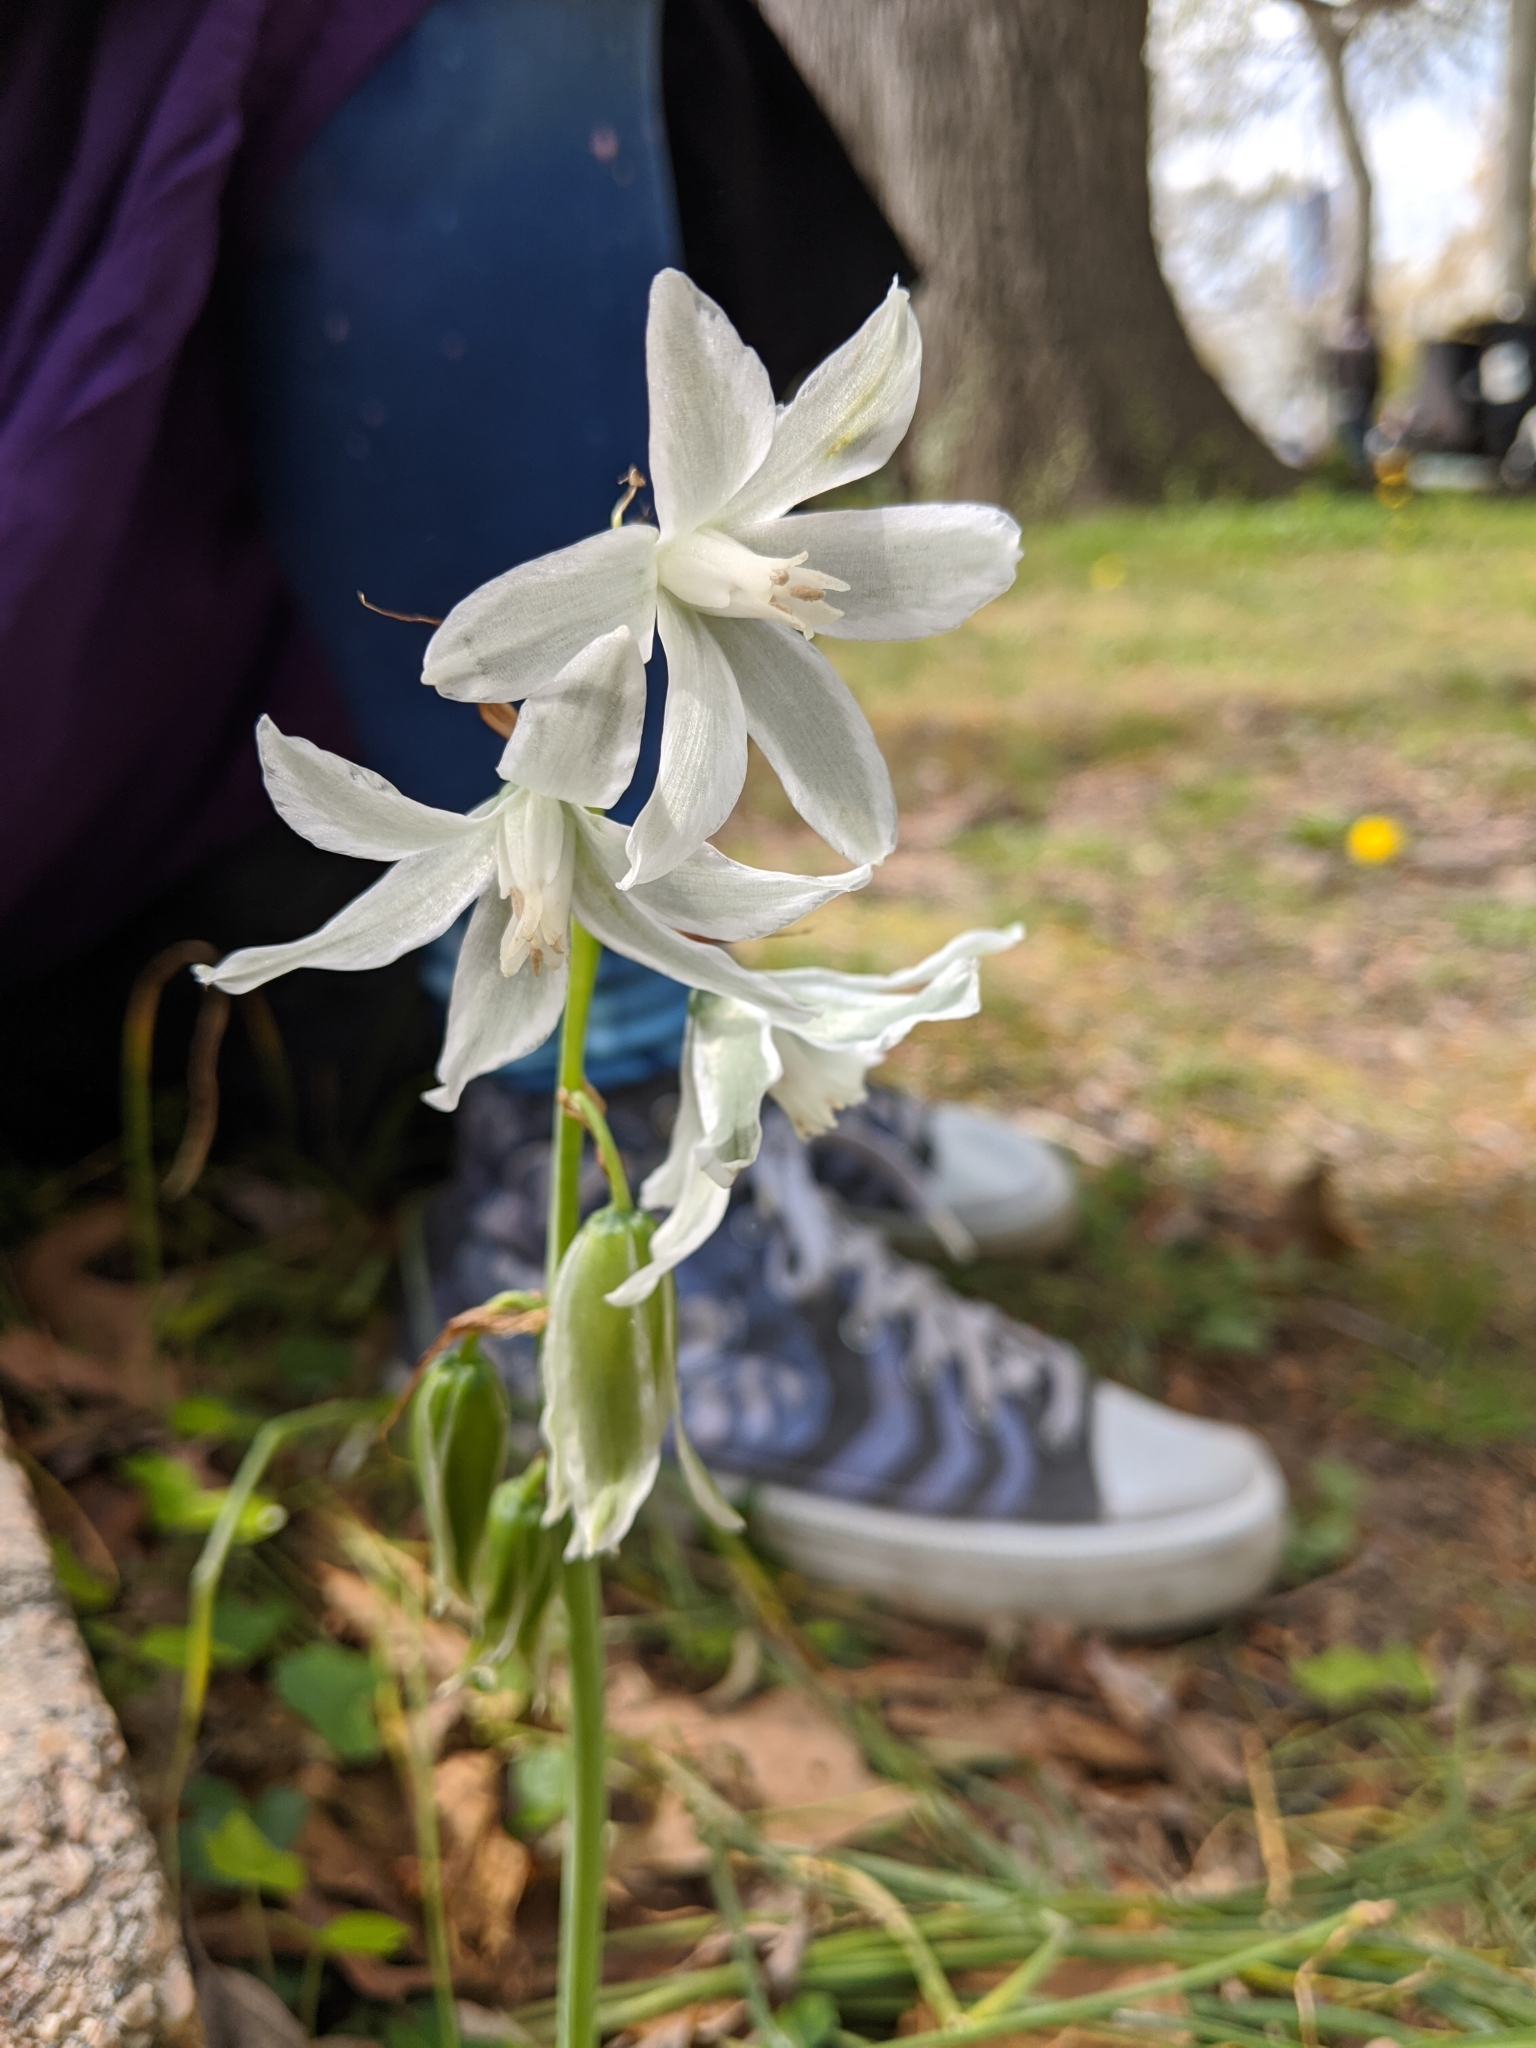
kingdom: Plantae
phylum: Tracheophyta
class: Liliopsida
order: Asparagales
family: Asparagaceae
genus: Ornithogalum
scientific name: Ornithogalum nutans
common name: Drooping star-of-bethlehem
